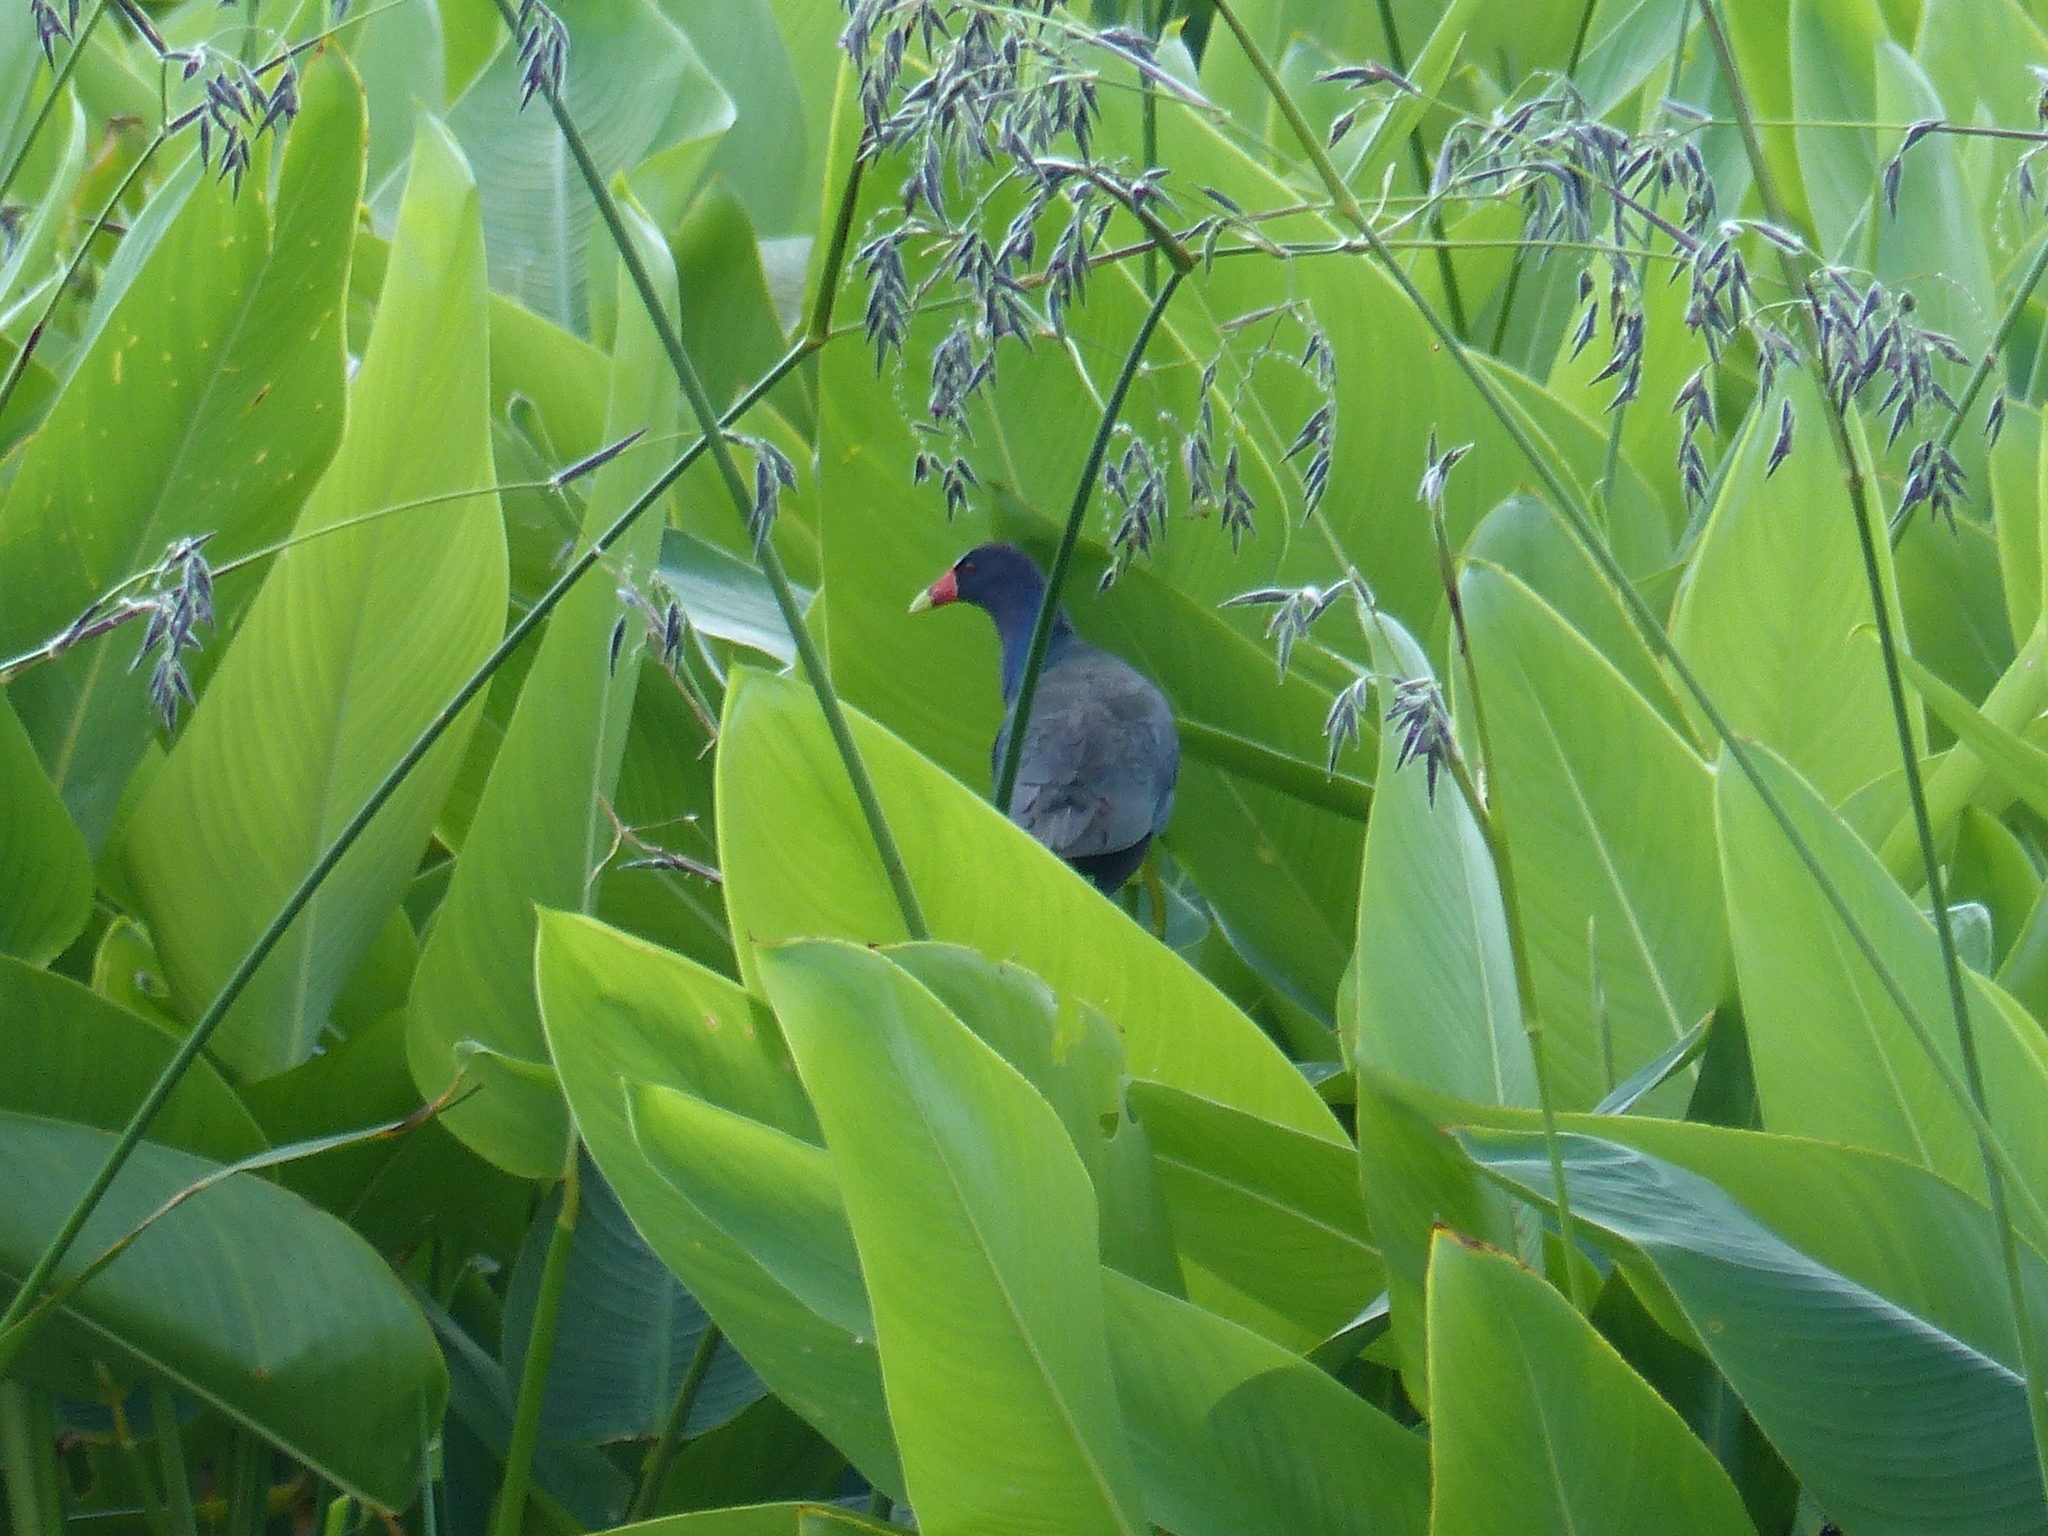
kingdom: Animalia
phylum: Chordata
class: Aves
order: Gruiformes
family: Rallidae
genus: Porphyrio
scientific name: Porphyrio martinica
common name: Purple gallinule
